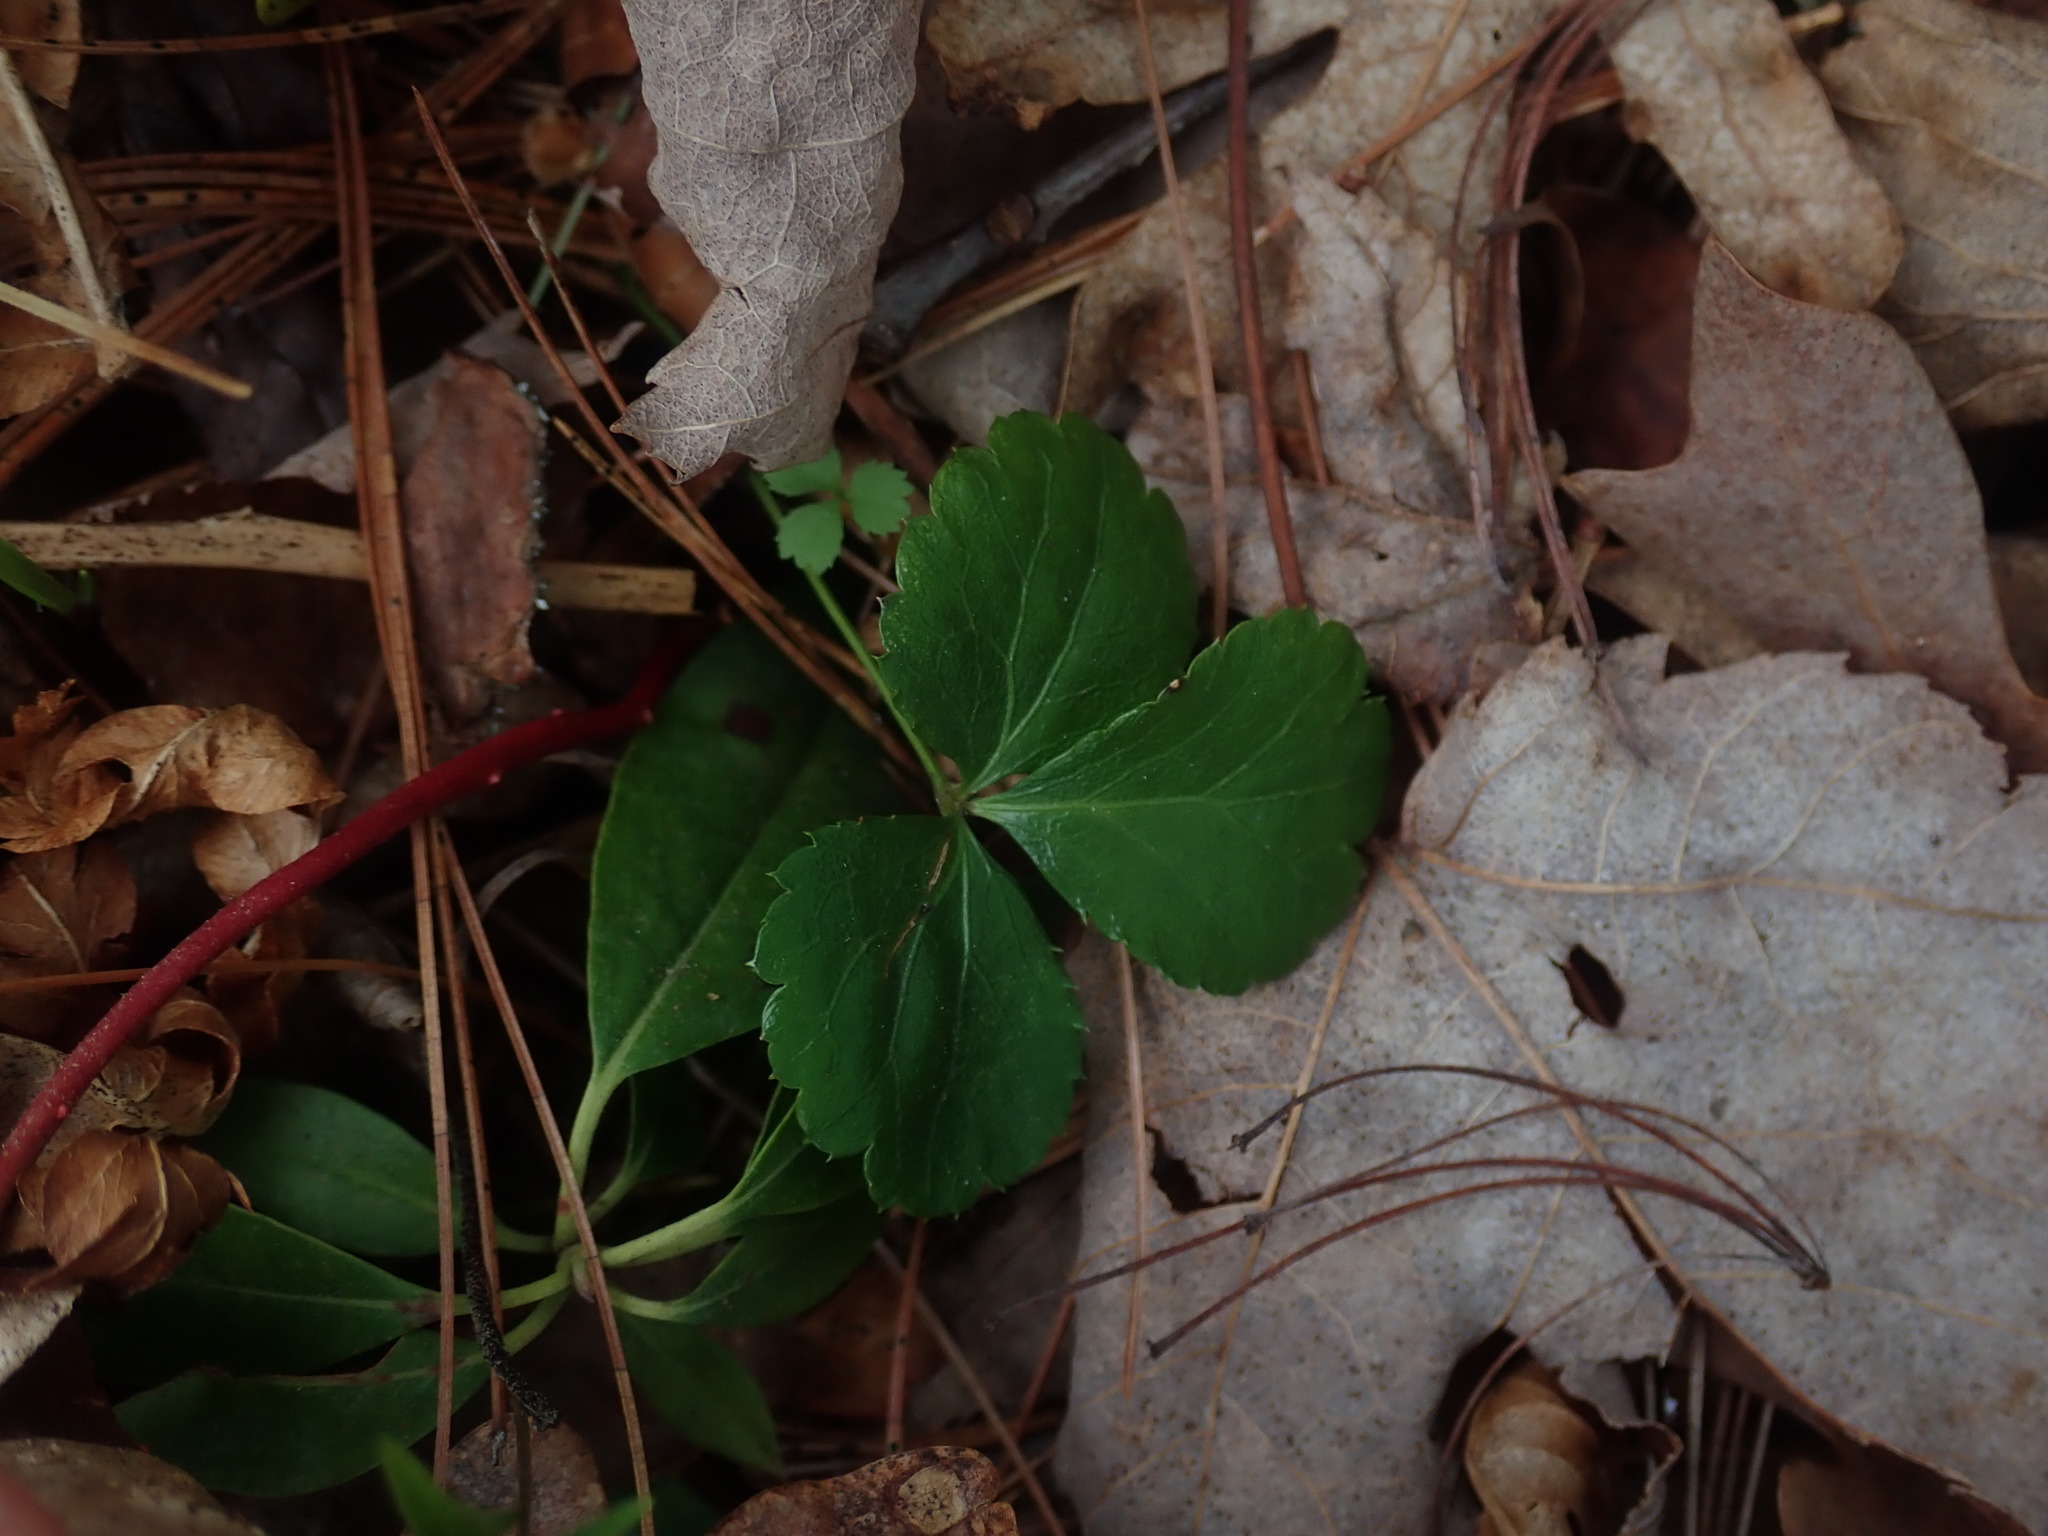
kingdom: Plantae
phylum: Tracheophyta
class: Magnoliopsida
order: Ranunculales
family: Ranunculaceae
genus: Coptis
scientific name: Coptis trifolia
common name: Canker-root
